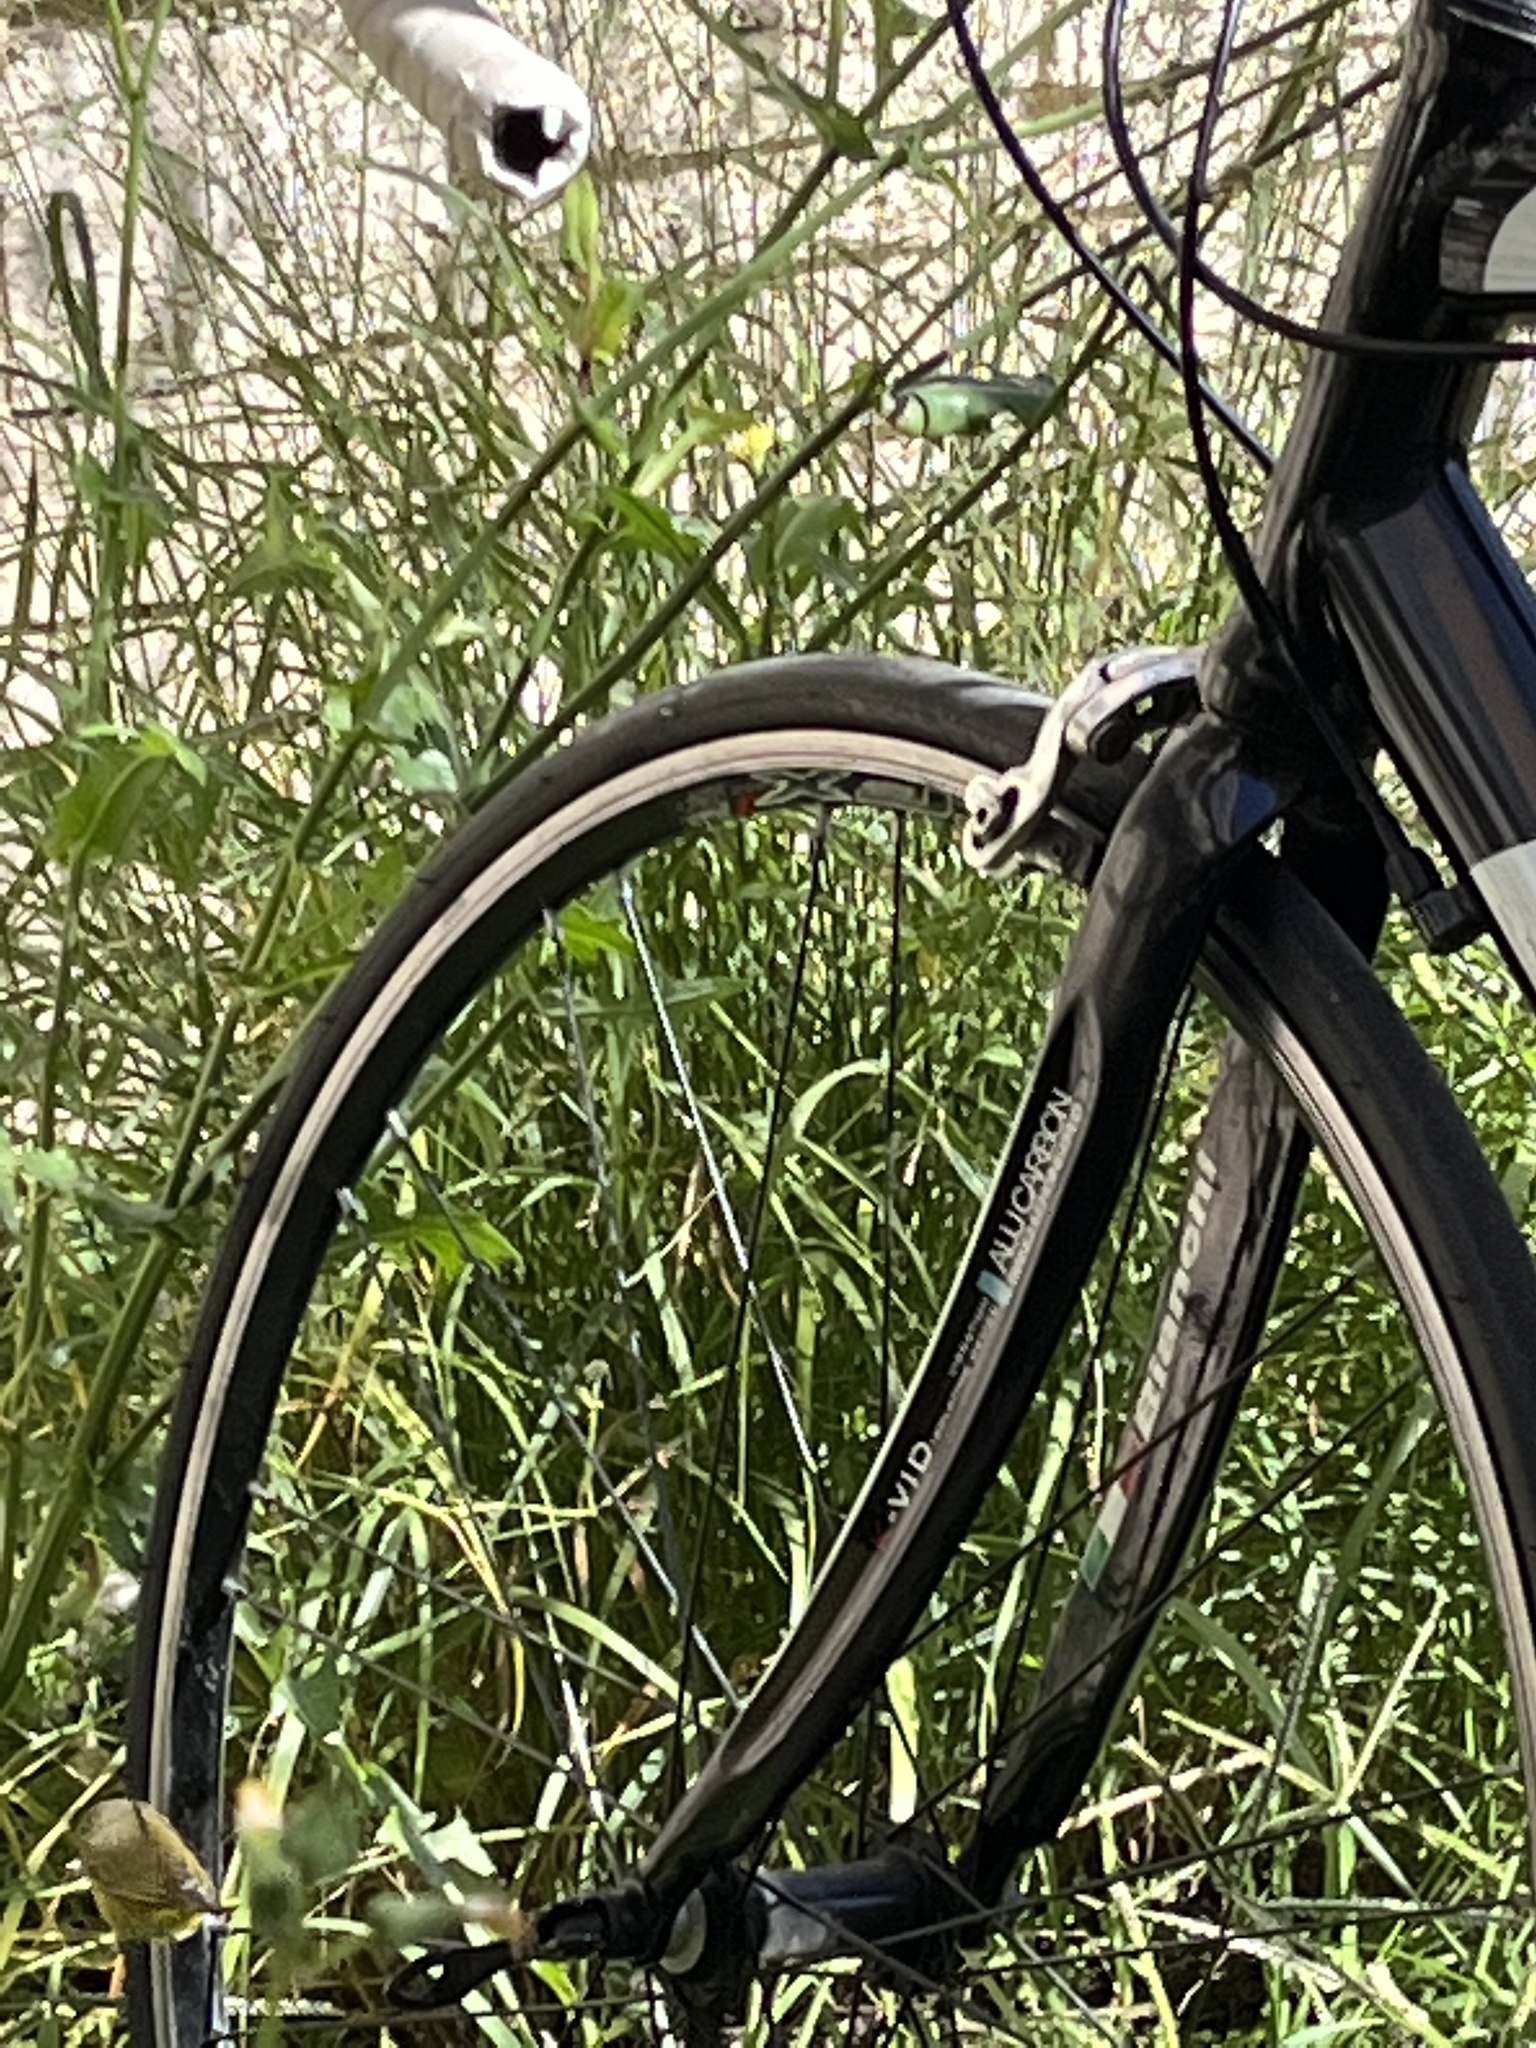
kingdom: Animalia
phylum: Chordata
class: Aves
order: Passeriformes
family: Parulidae
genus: Leiothlypis
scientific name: Leiothlypis ruficapilla
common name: Nashville warbler
